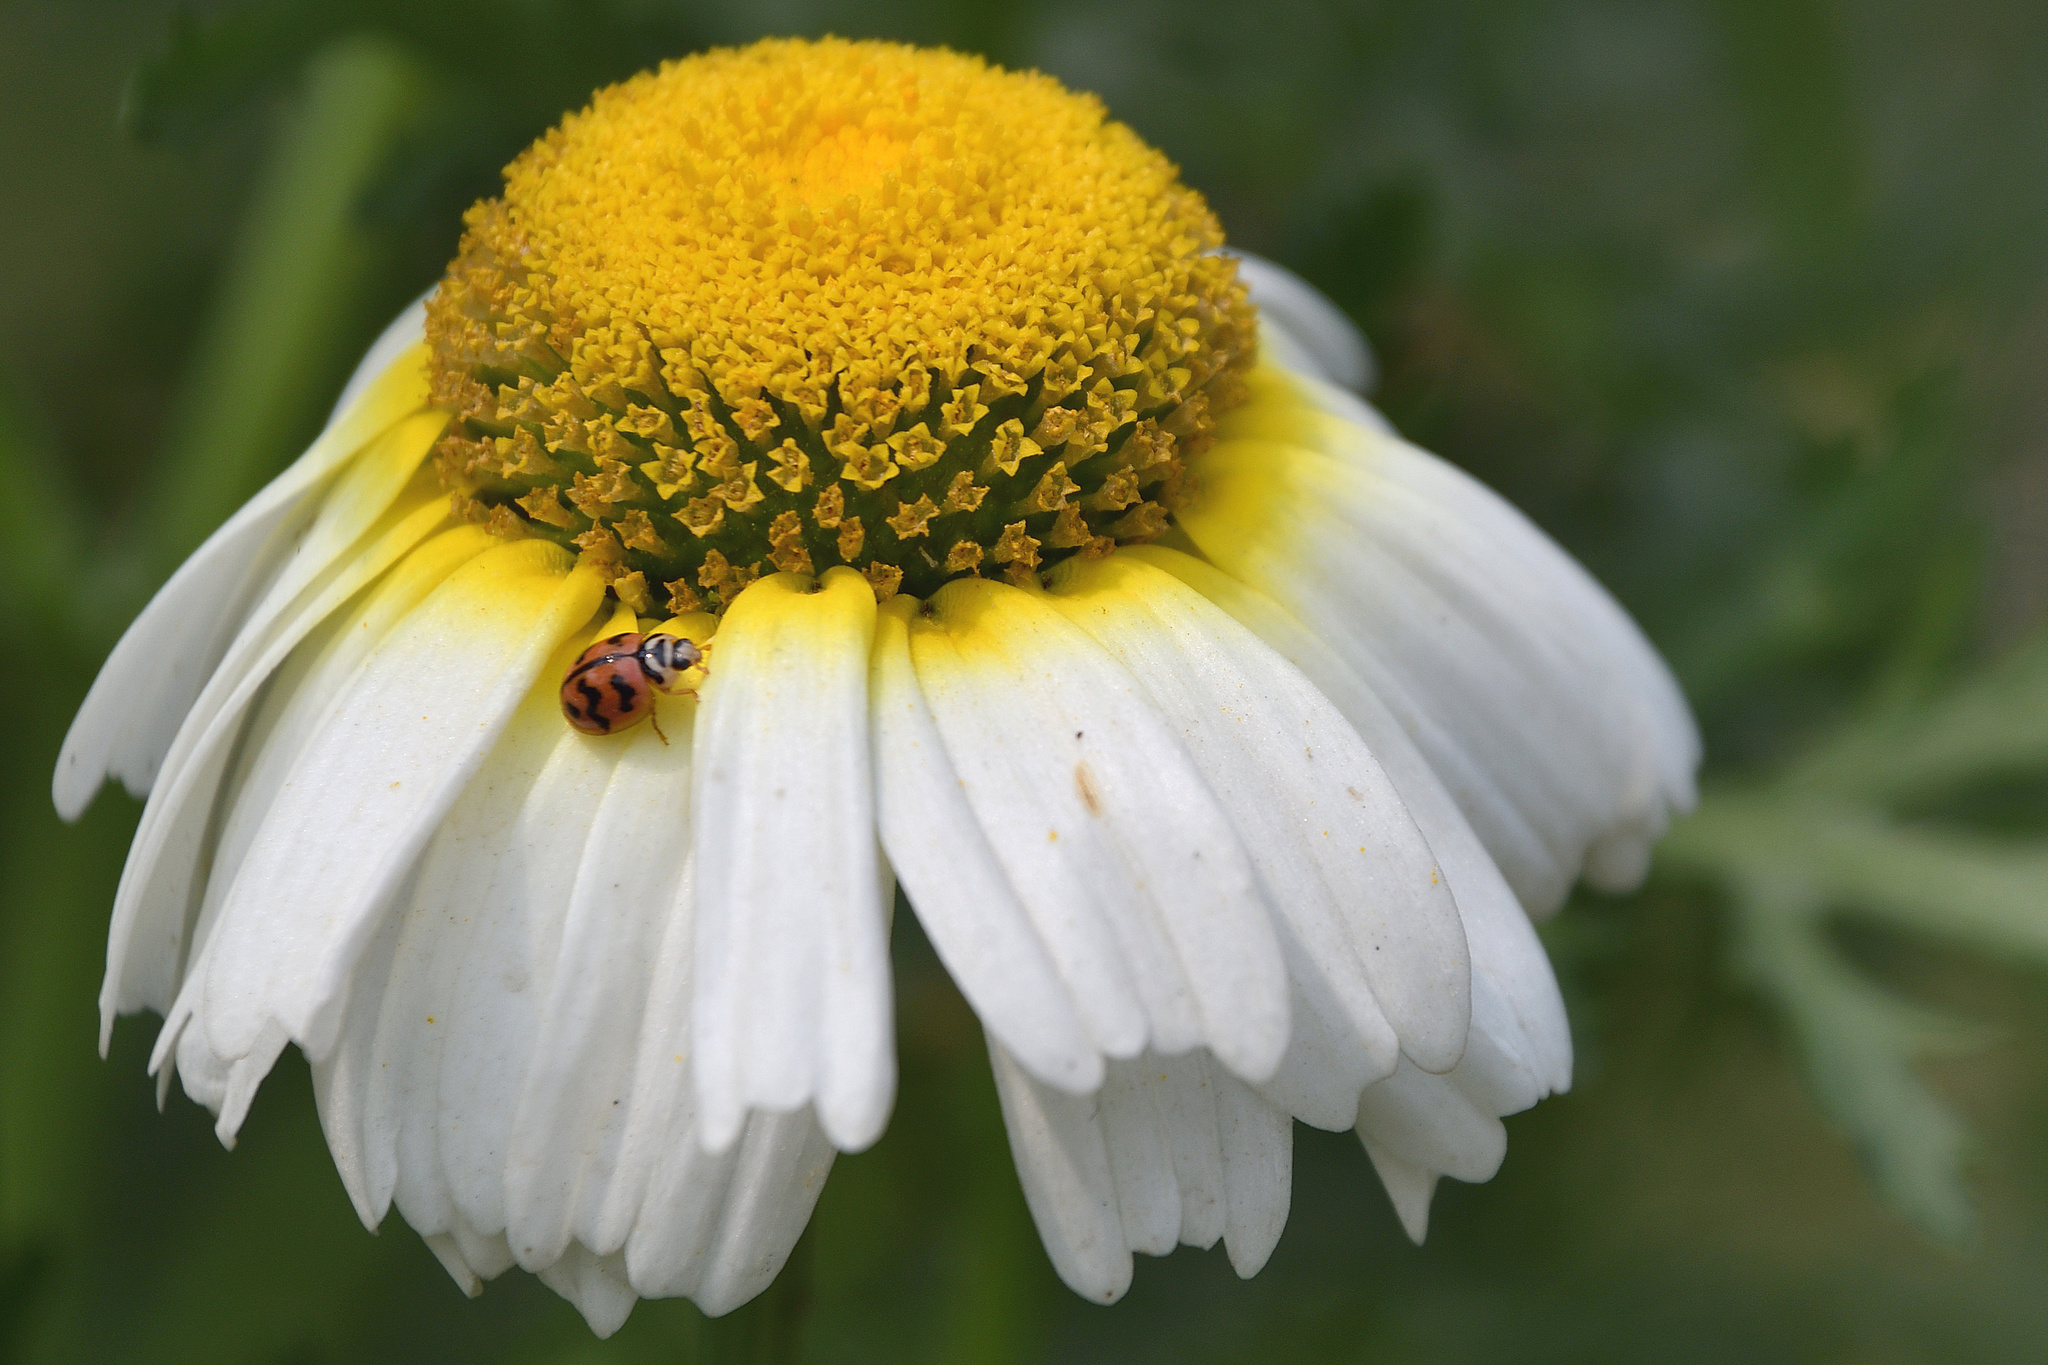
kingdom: Animalia
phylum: Arthropoda
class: Insecta
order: Coleoptera
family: Coccinellidae
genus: Cheilomenes
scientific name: Cheilomenes sexmaculata
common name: Ladybird beetle
